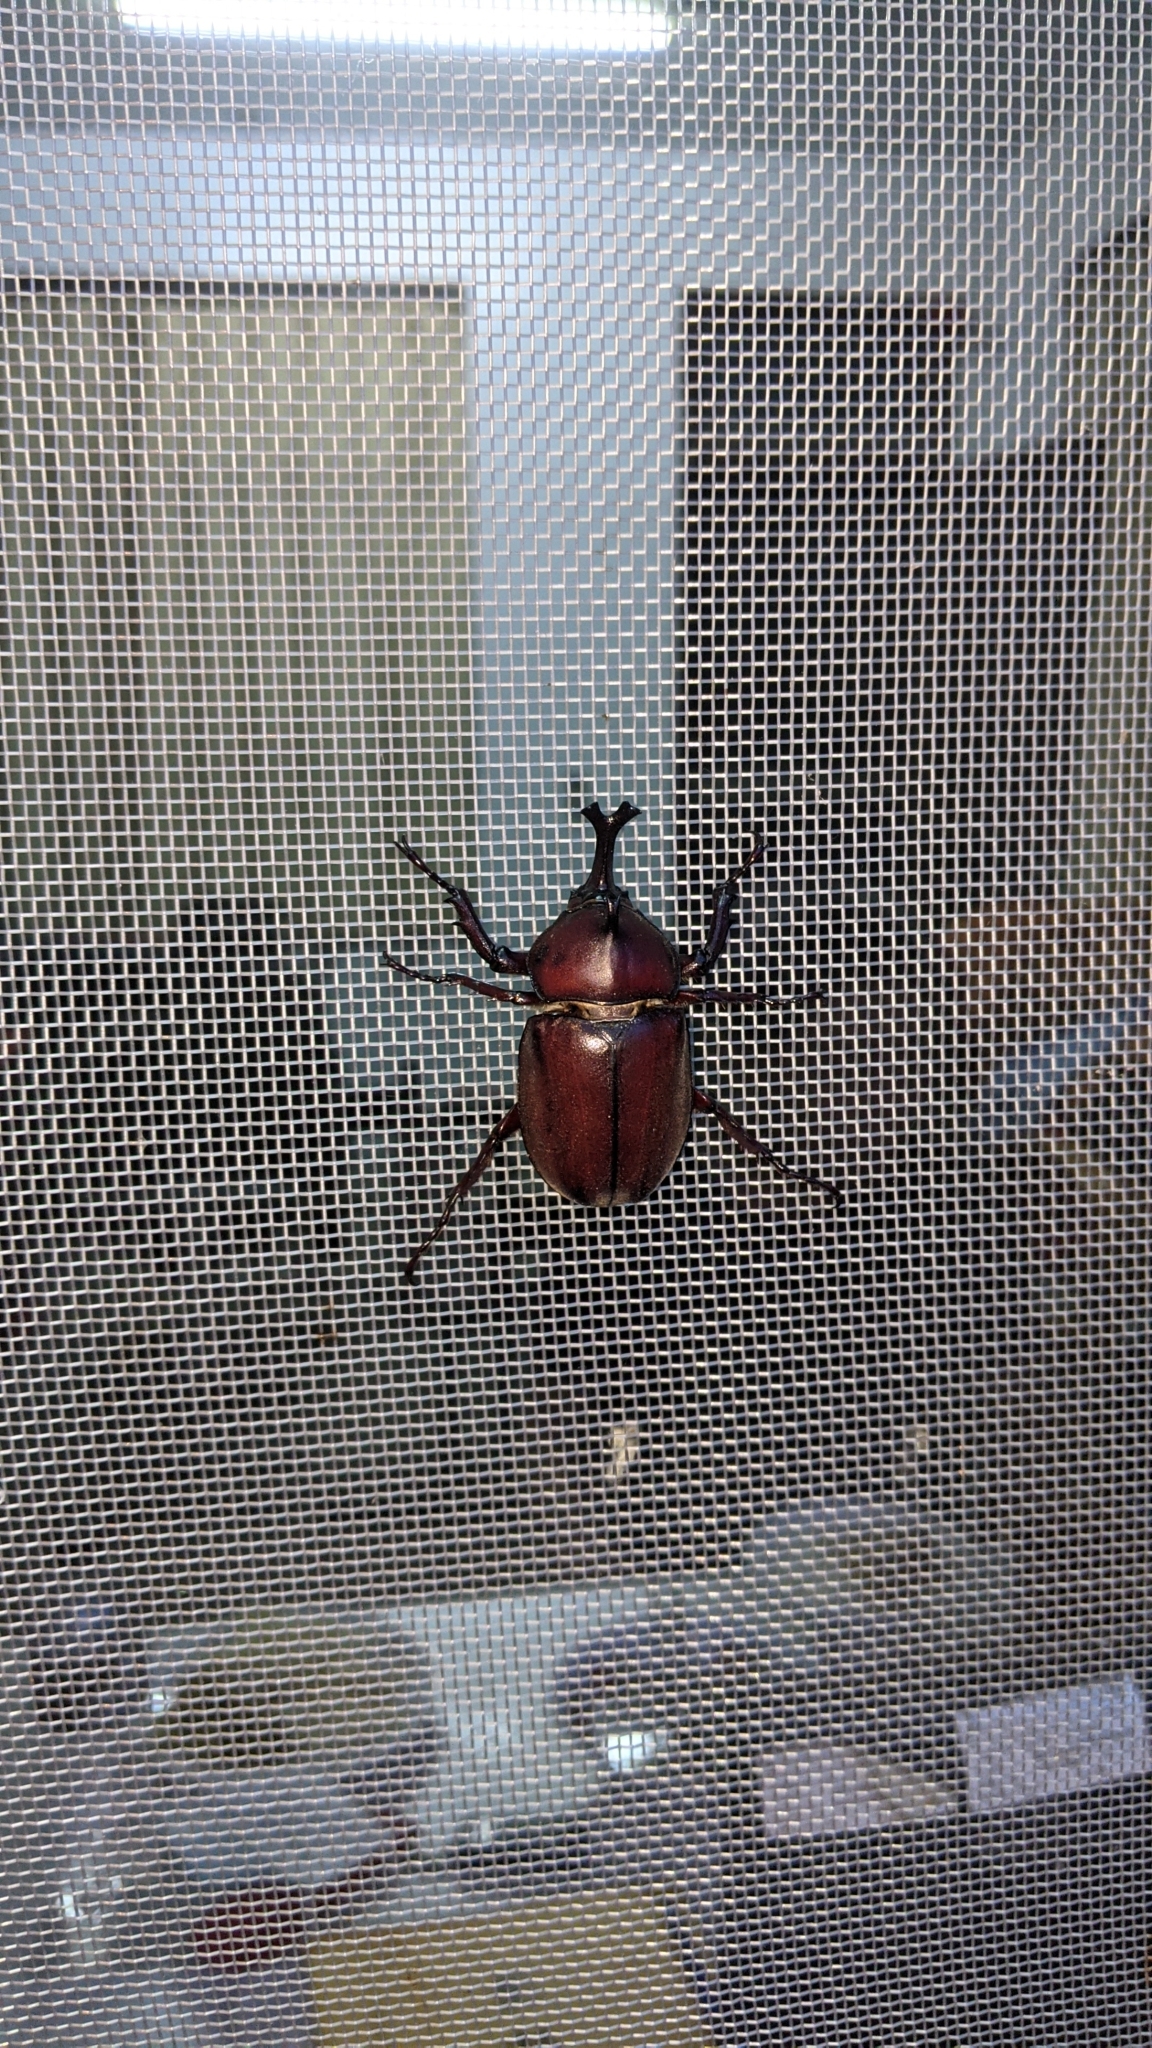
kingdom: Animalia
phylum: Arthropoda
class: Insecta
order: Coleoptera
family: Scarabaeidae
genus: Trypoxylus
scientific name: Trypoxylus dichotomus
